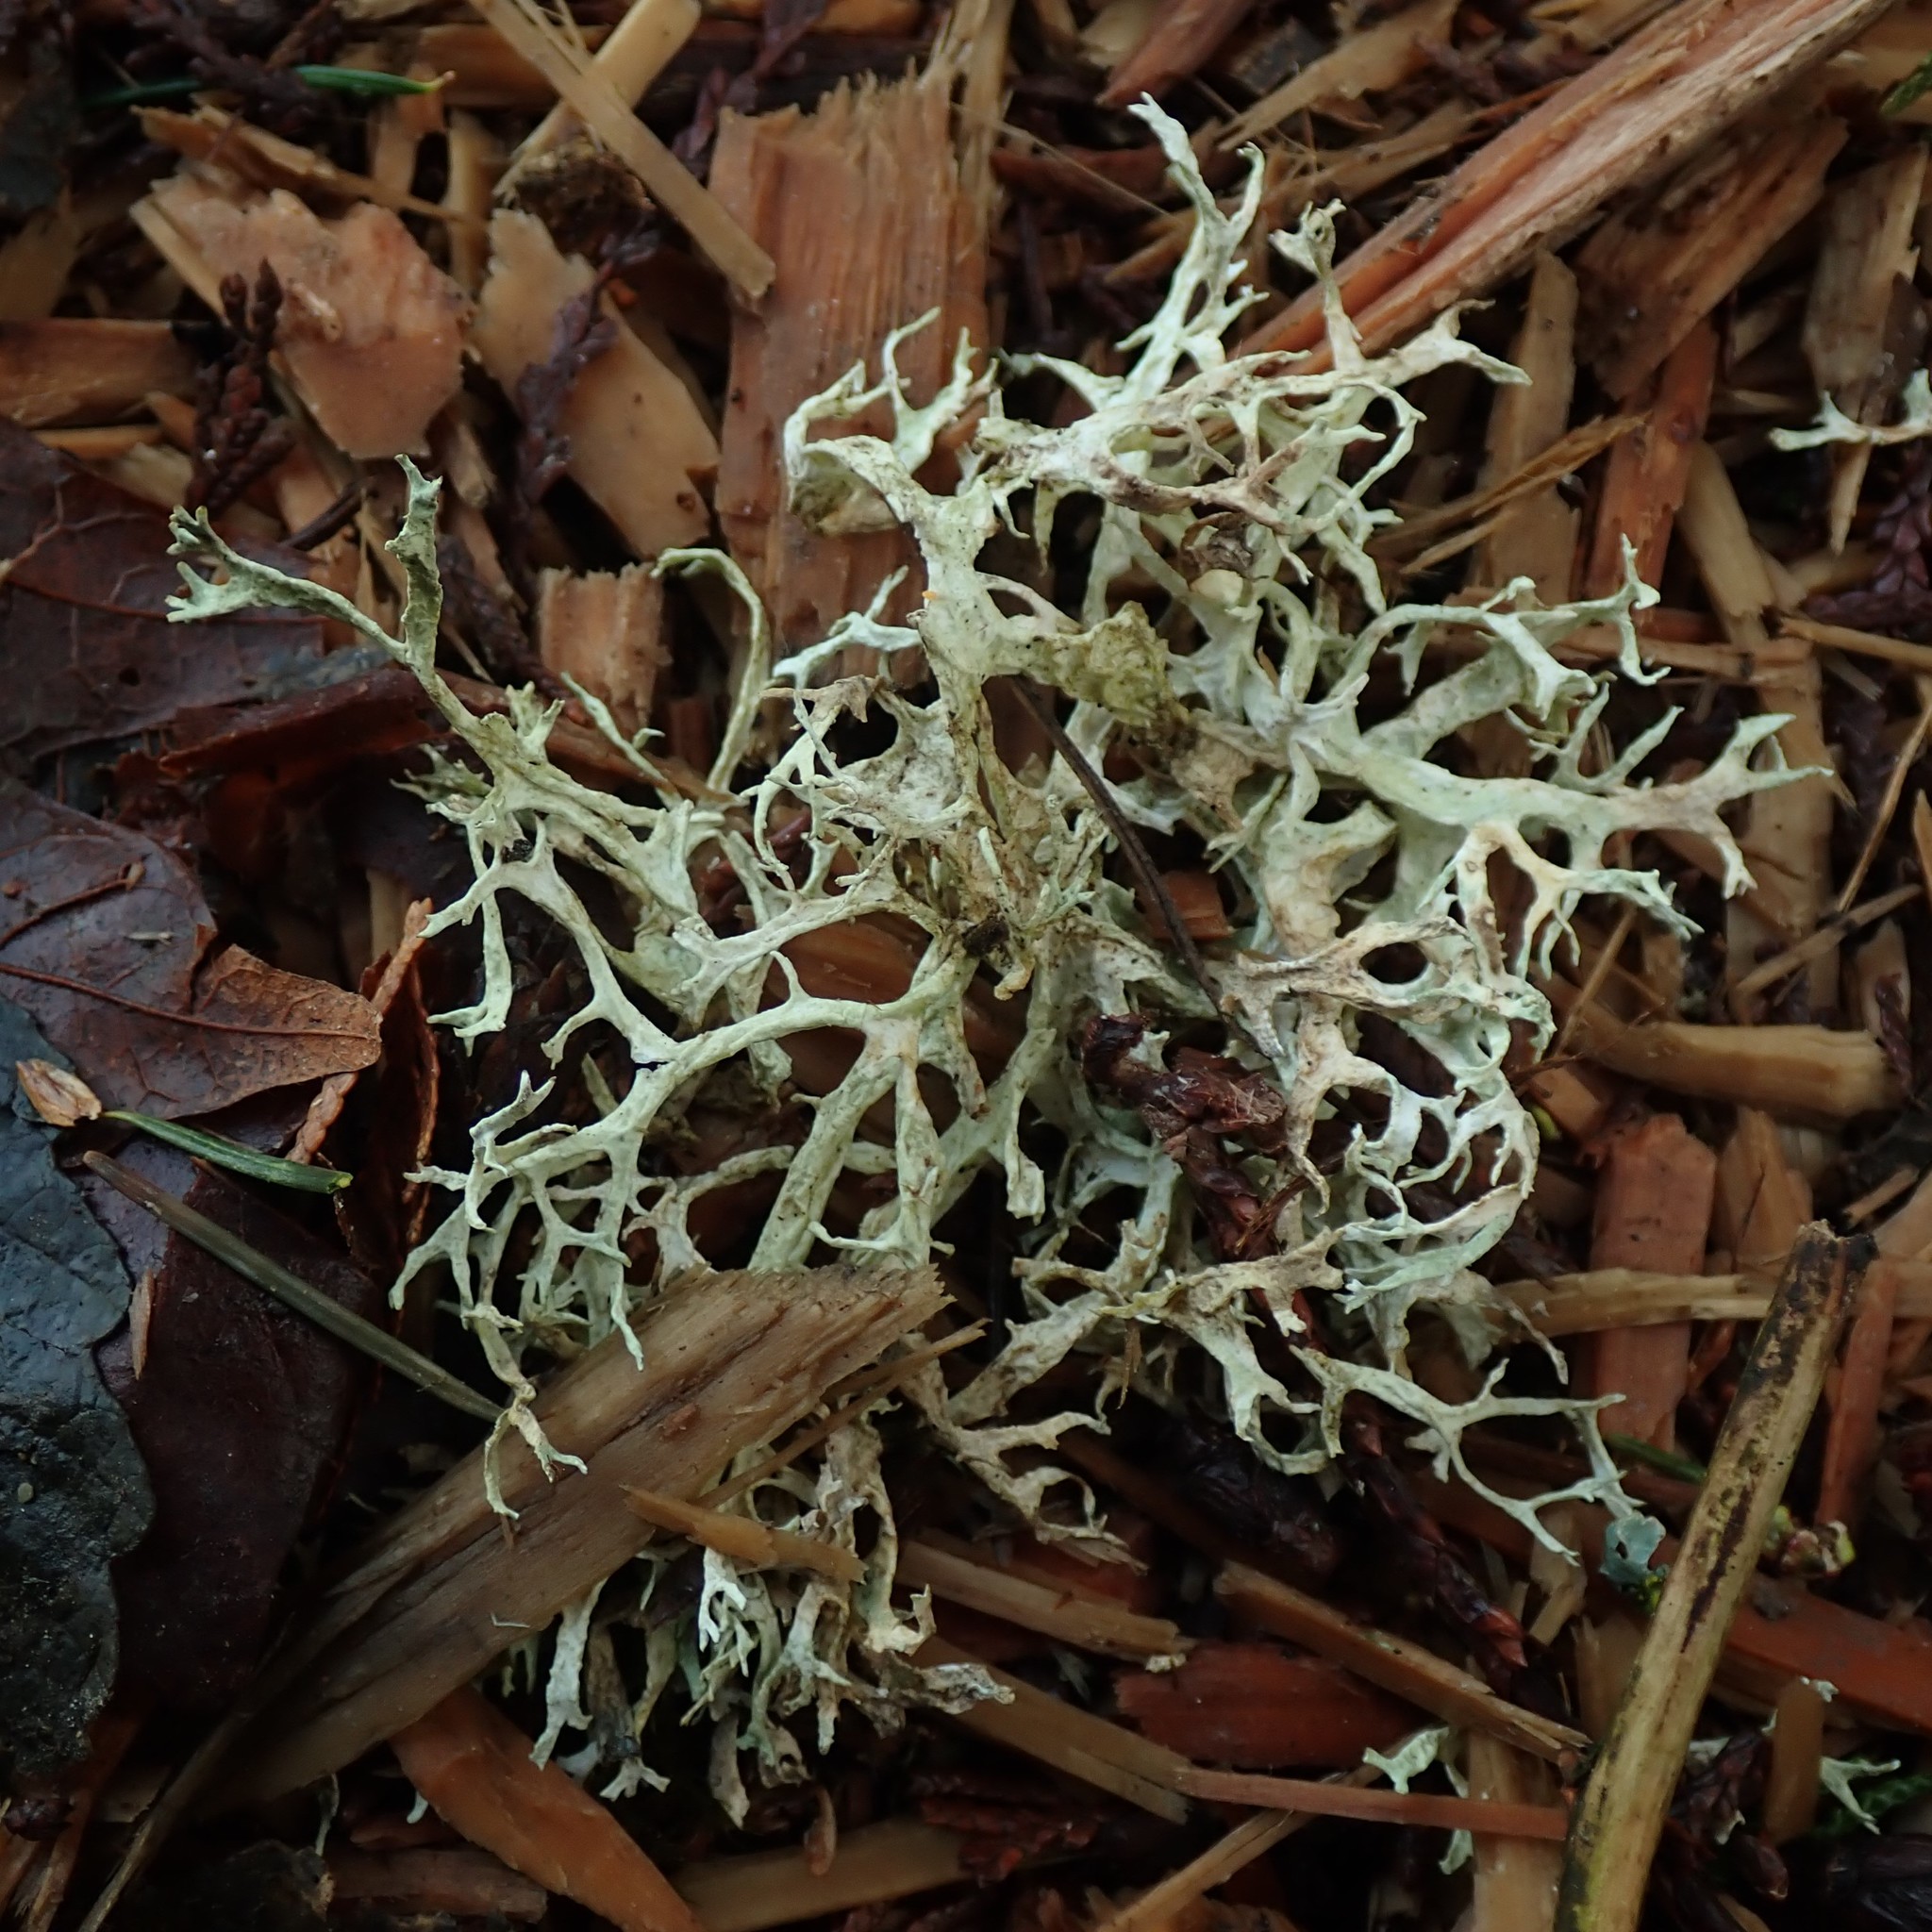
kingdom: Fungi
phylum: Ascomycota
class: Lecanoromycetes
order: Lecanorales
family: Parmeliaceae
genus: Evernia
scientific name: Evernia prunastri
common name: Oak moss
